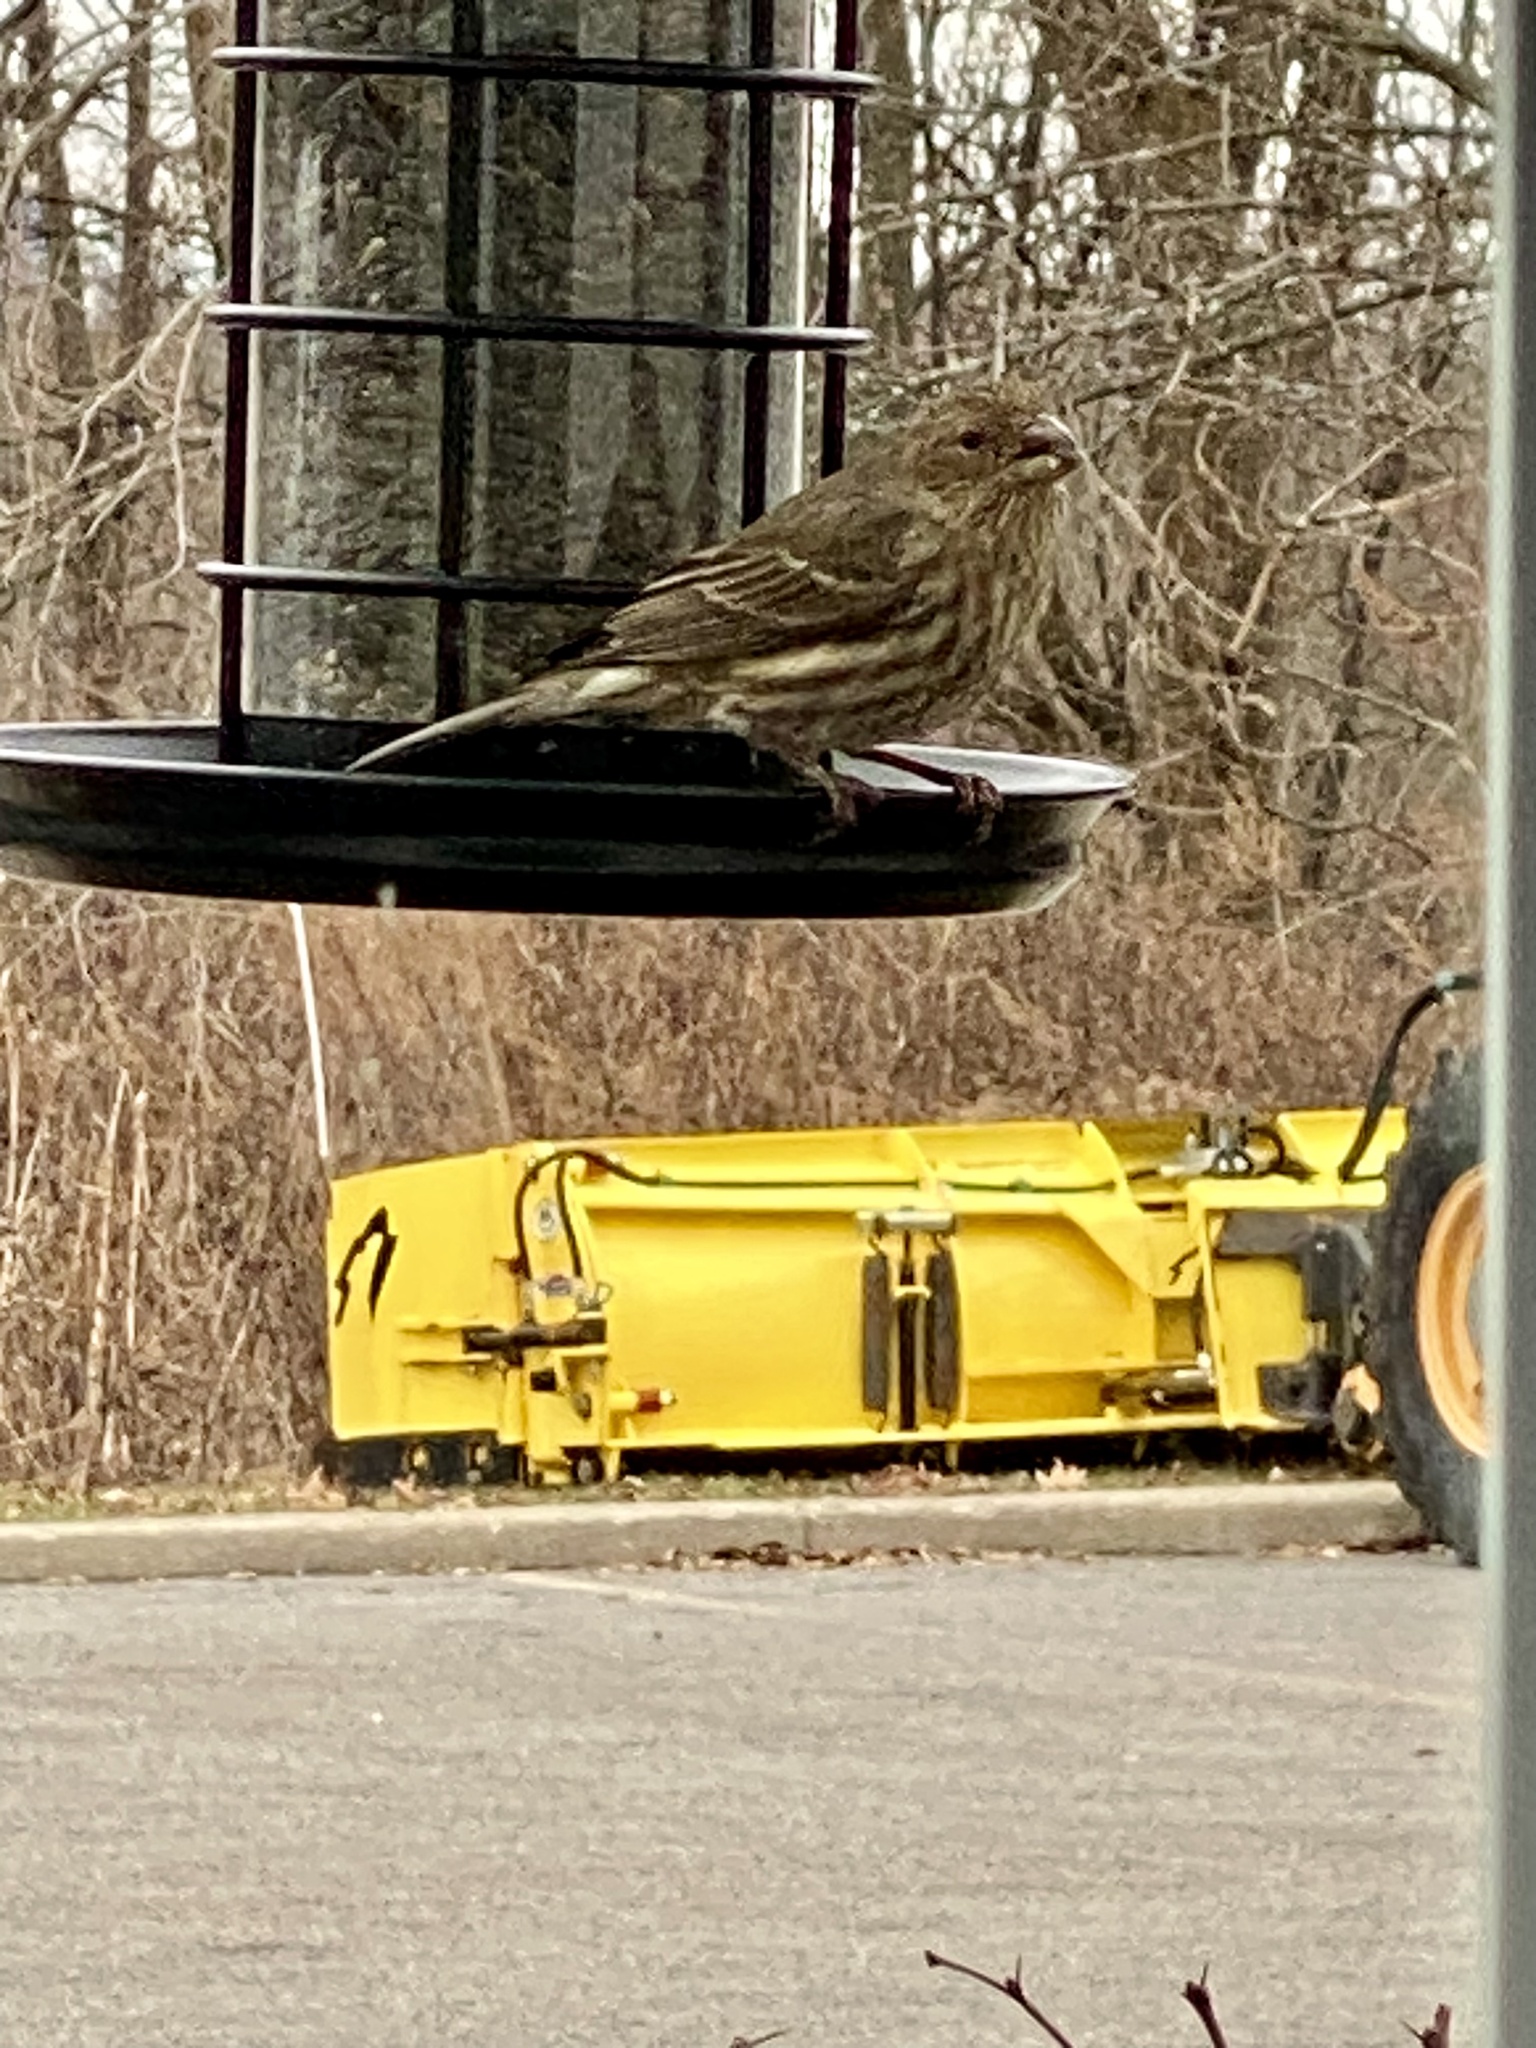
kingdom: Animalia
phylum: Chordata
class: Aves
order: Passeriformes
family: Fringillidae
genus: Haemorhous
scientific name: Haemorhous mexicanus
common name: House finch
